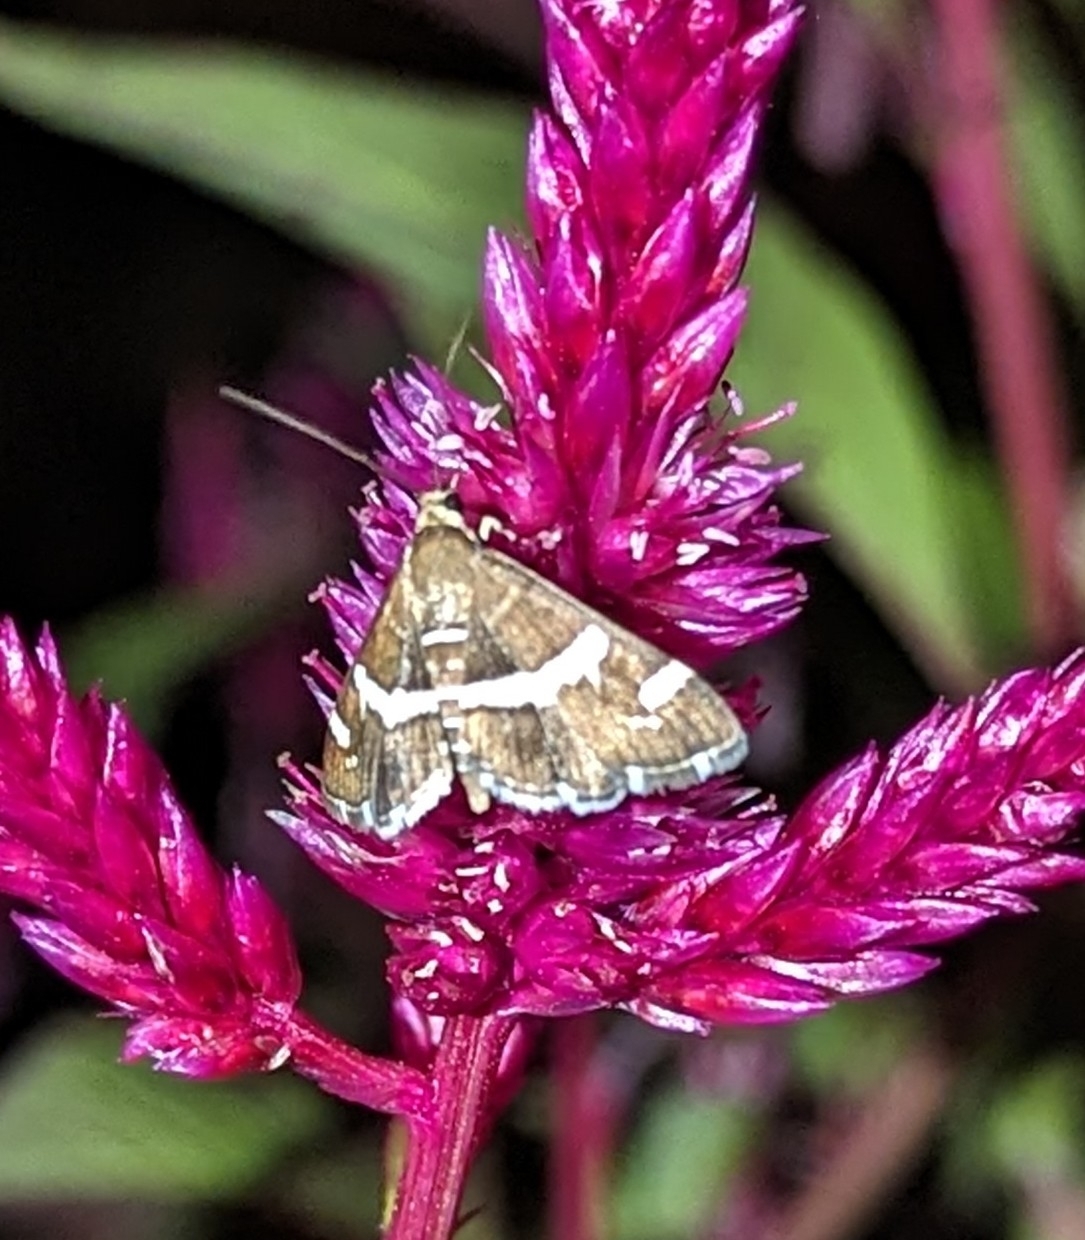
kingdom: Animalia
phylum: Arthropoda
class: Insecta
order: Lepidoptera
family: Crambidae
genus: Spoladea
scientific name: Spoladea recurvalis
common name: Beet webworm moth
